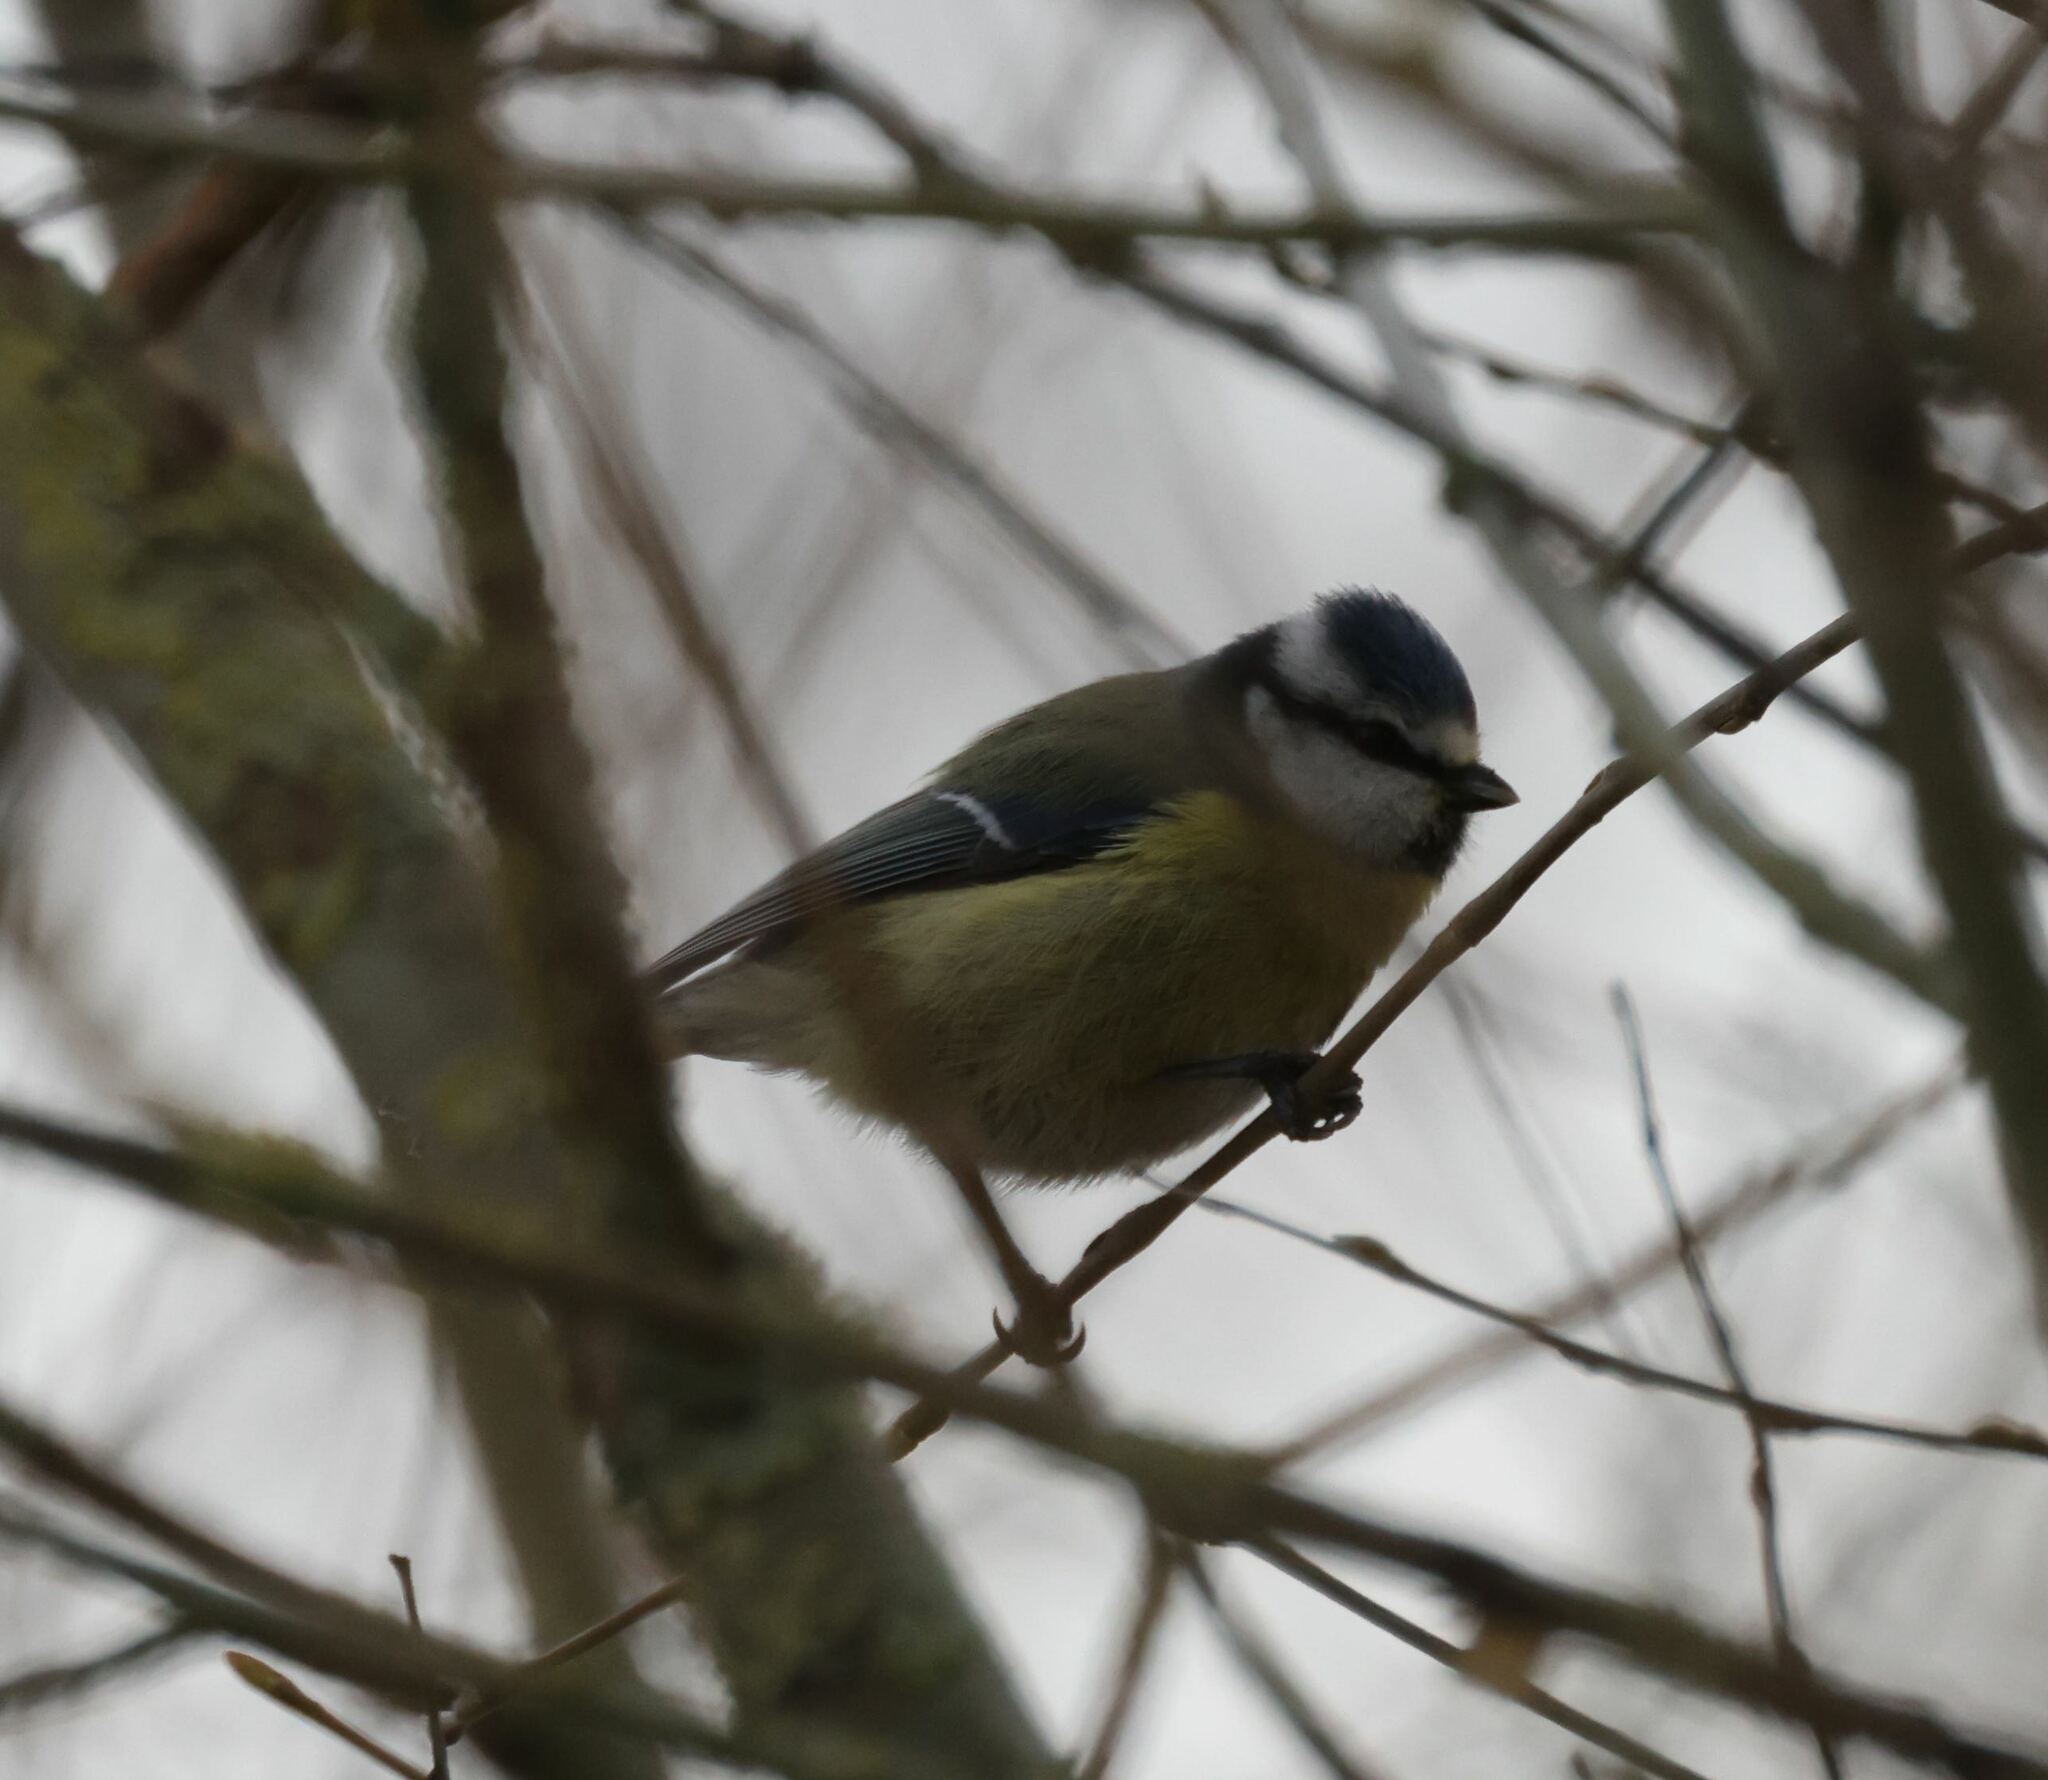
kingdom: Animalia
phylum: Chordata
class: Aves
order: Passeriformes
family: Paridae
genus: Cyanistes
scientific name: Cyanistes caeruleus
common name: Eurasian blue tit
